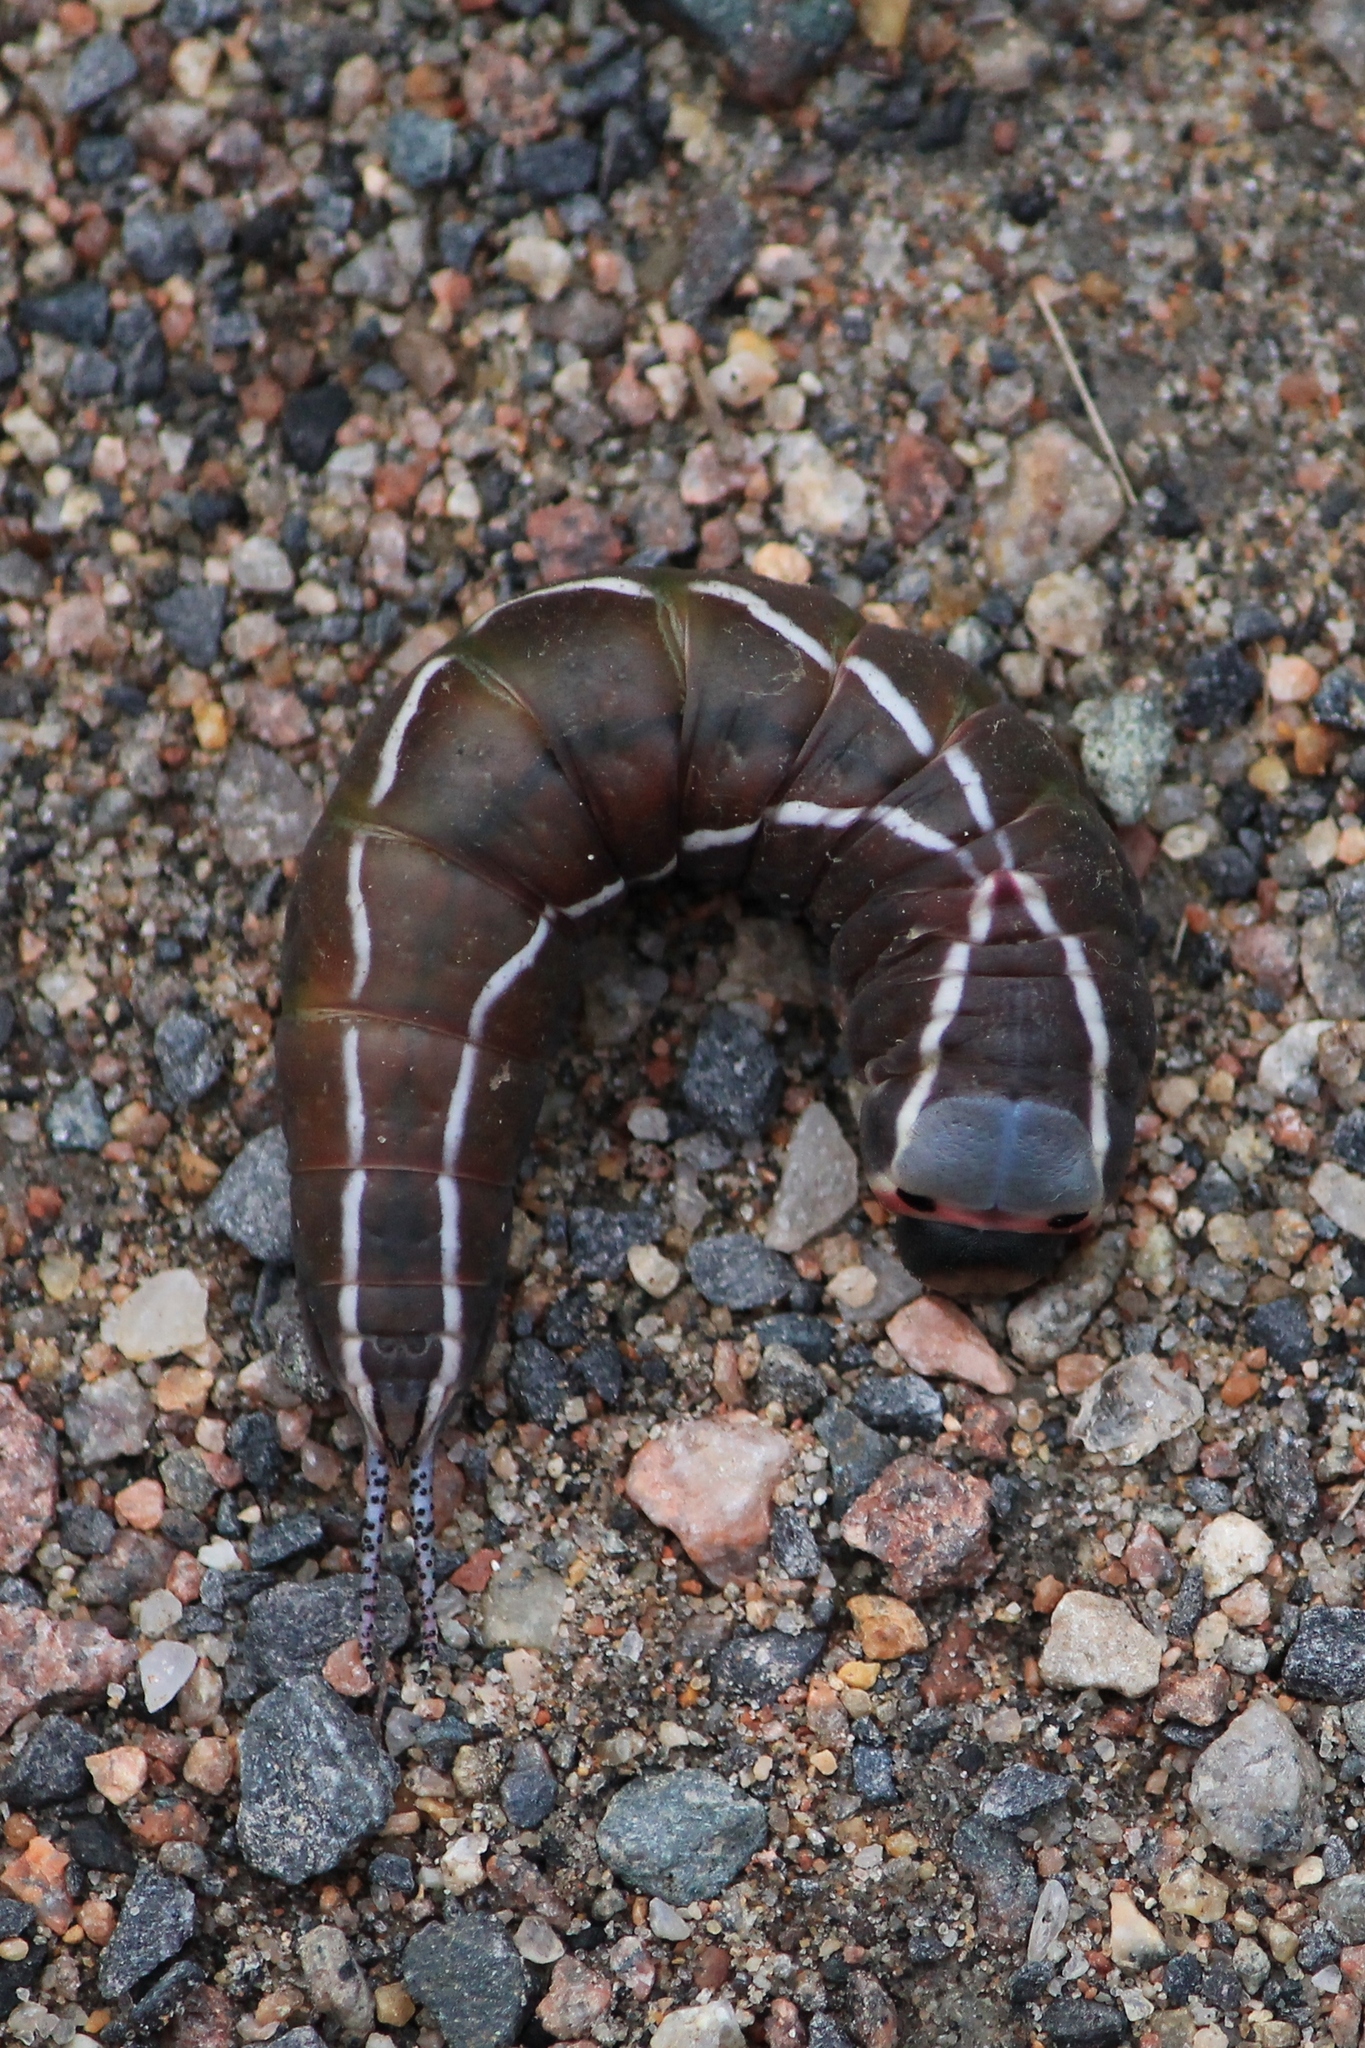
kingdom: Animalia
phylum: Arthropoda
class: Insecta
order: Lepidoptera
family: Notodontidae
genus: Cerura
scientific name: Cerura vinula
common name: Puss moth
